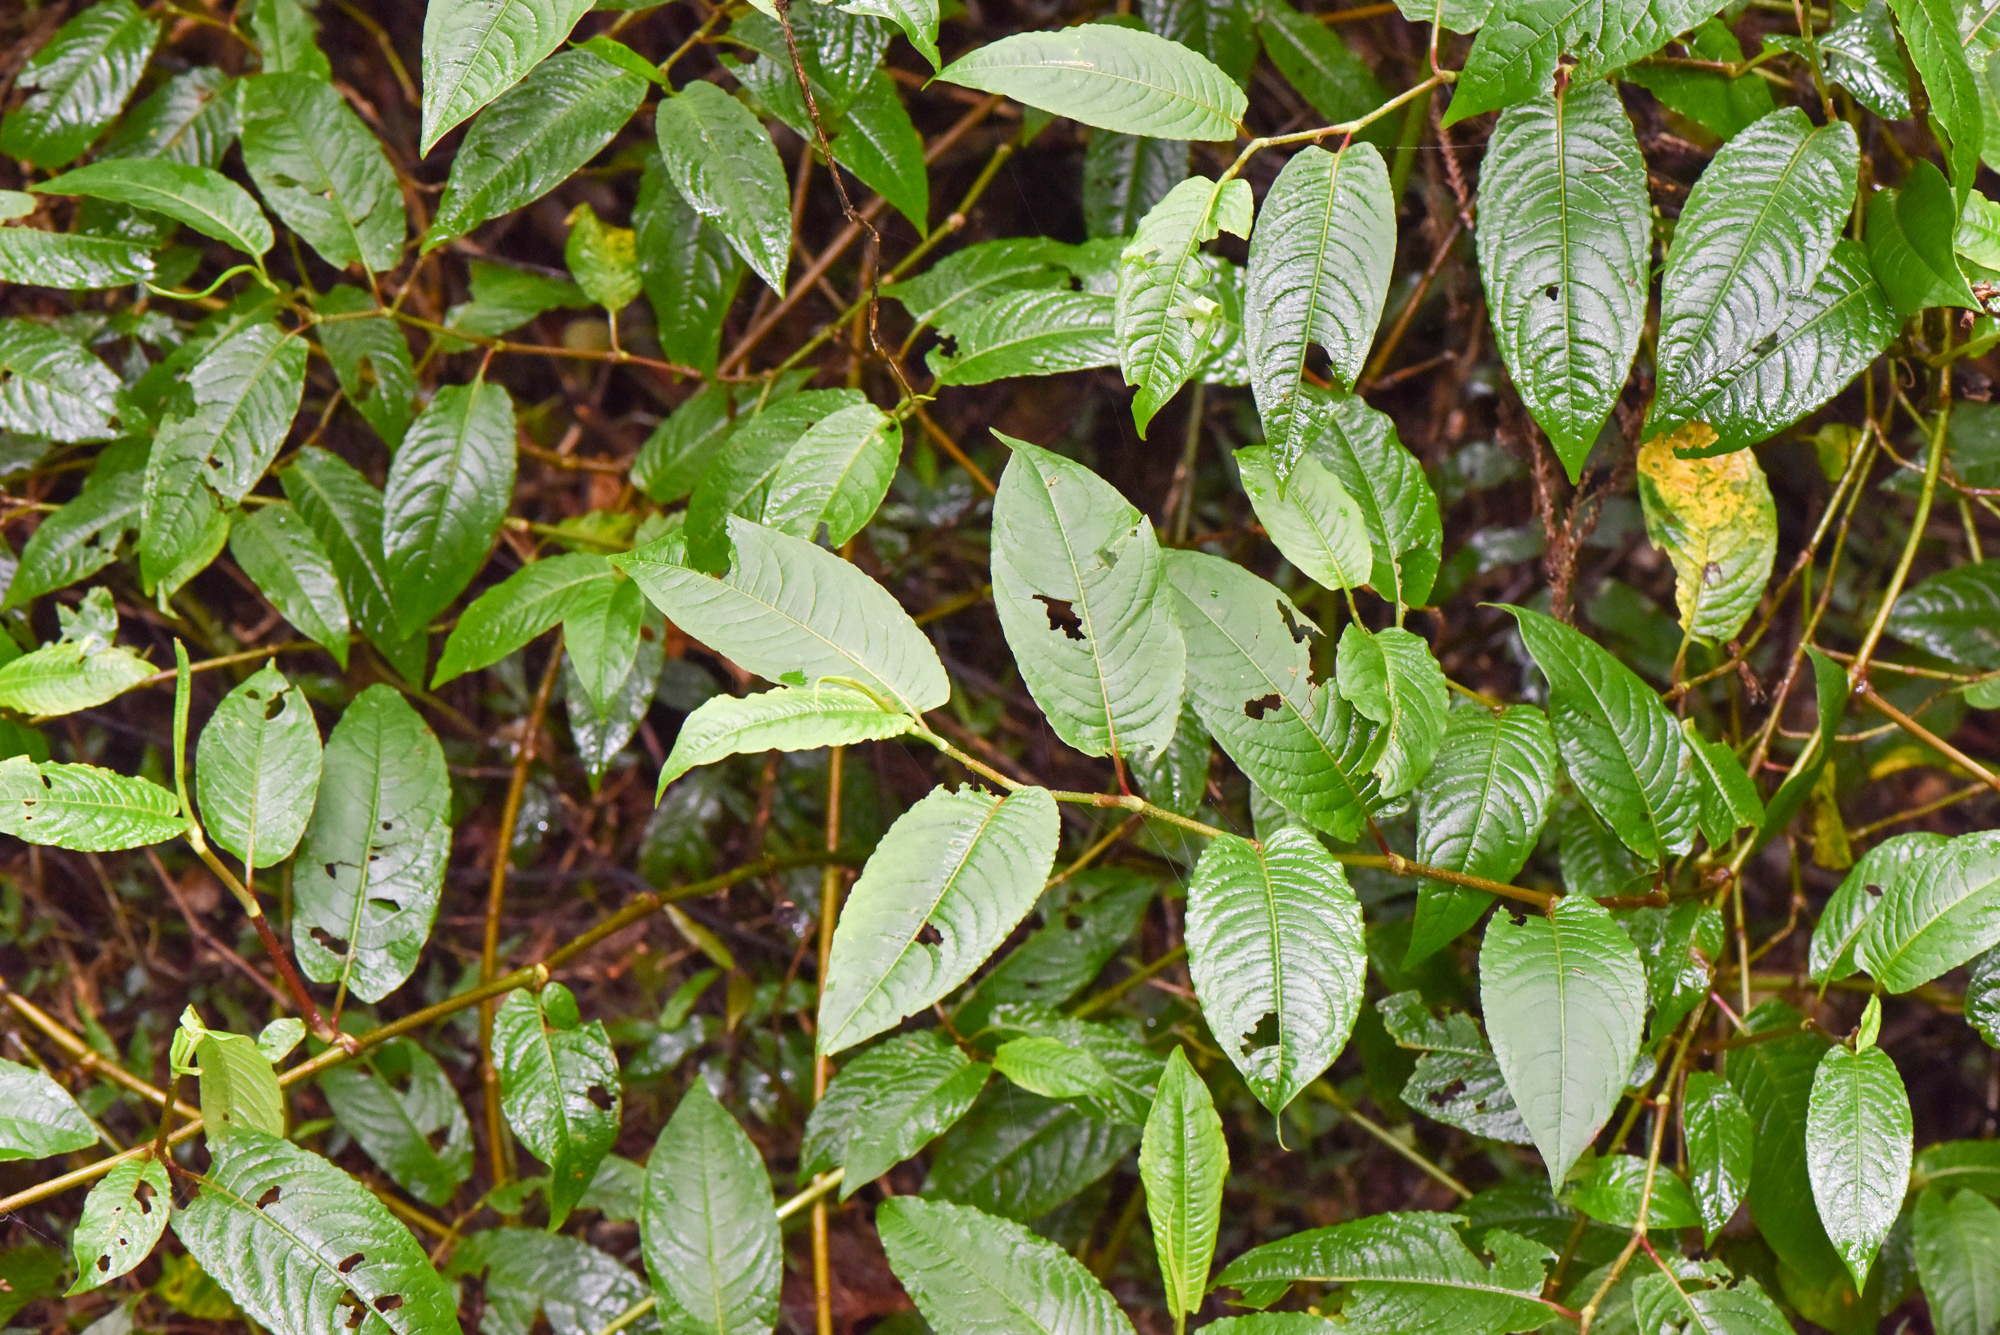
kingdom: Plantae
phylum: Tracheophyta
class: Magnoliopsida
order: Caryophyllales
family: Polygonaceae
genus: Persicaria
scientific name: Persicaria chinensis
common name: Chinese knotweed
